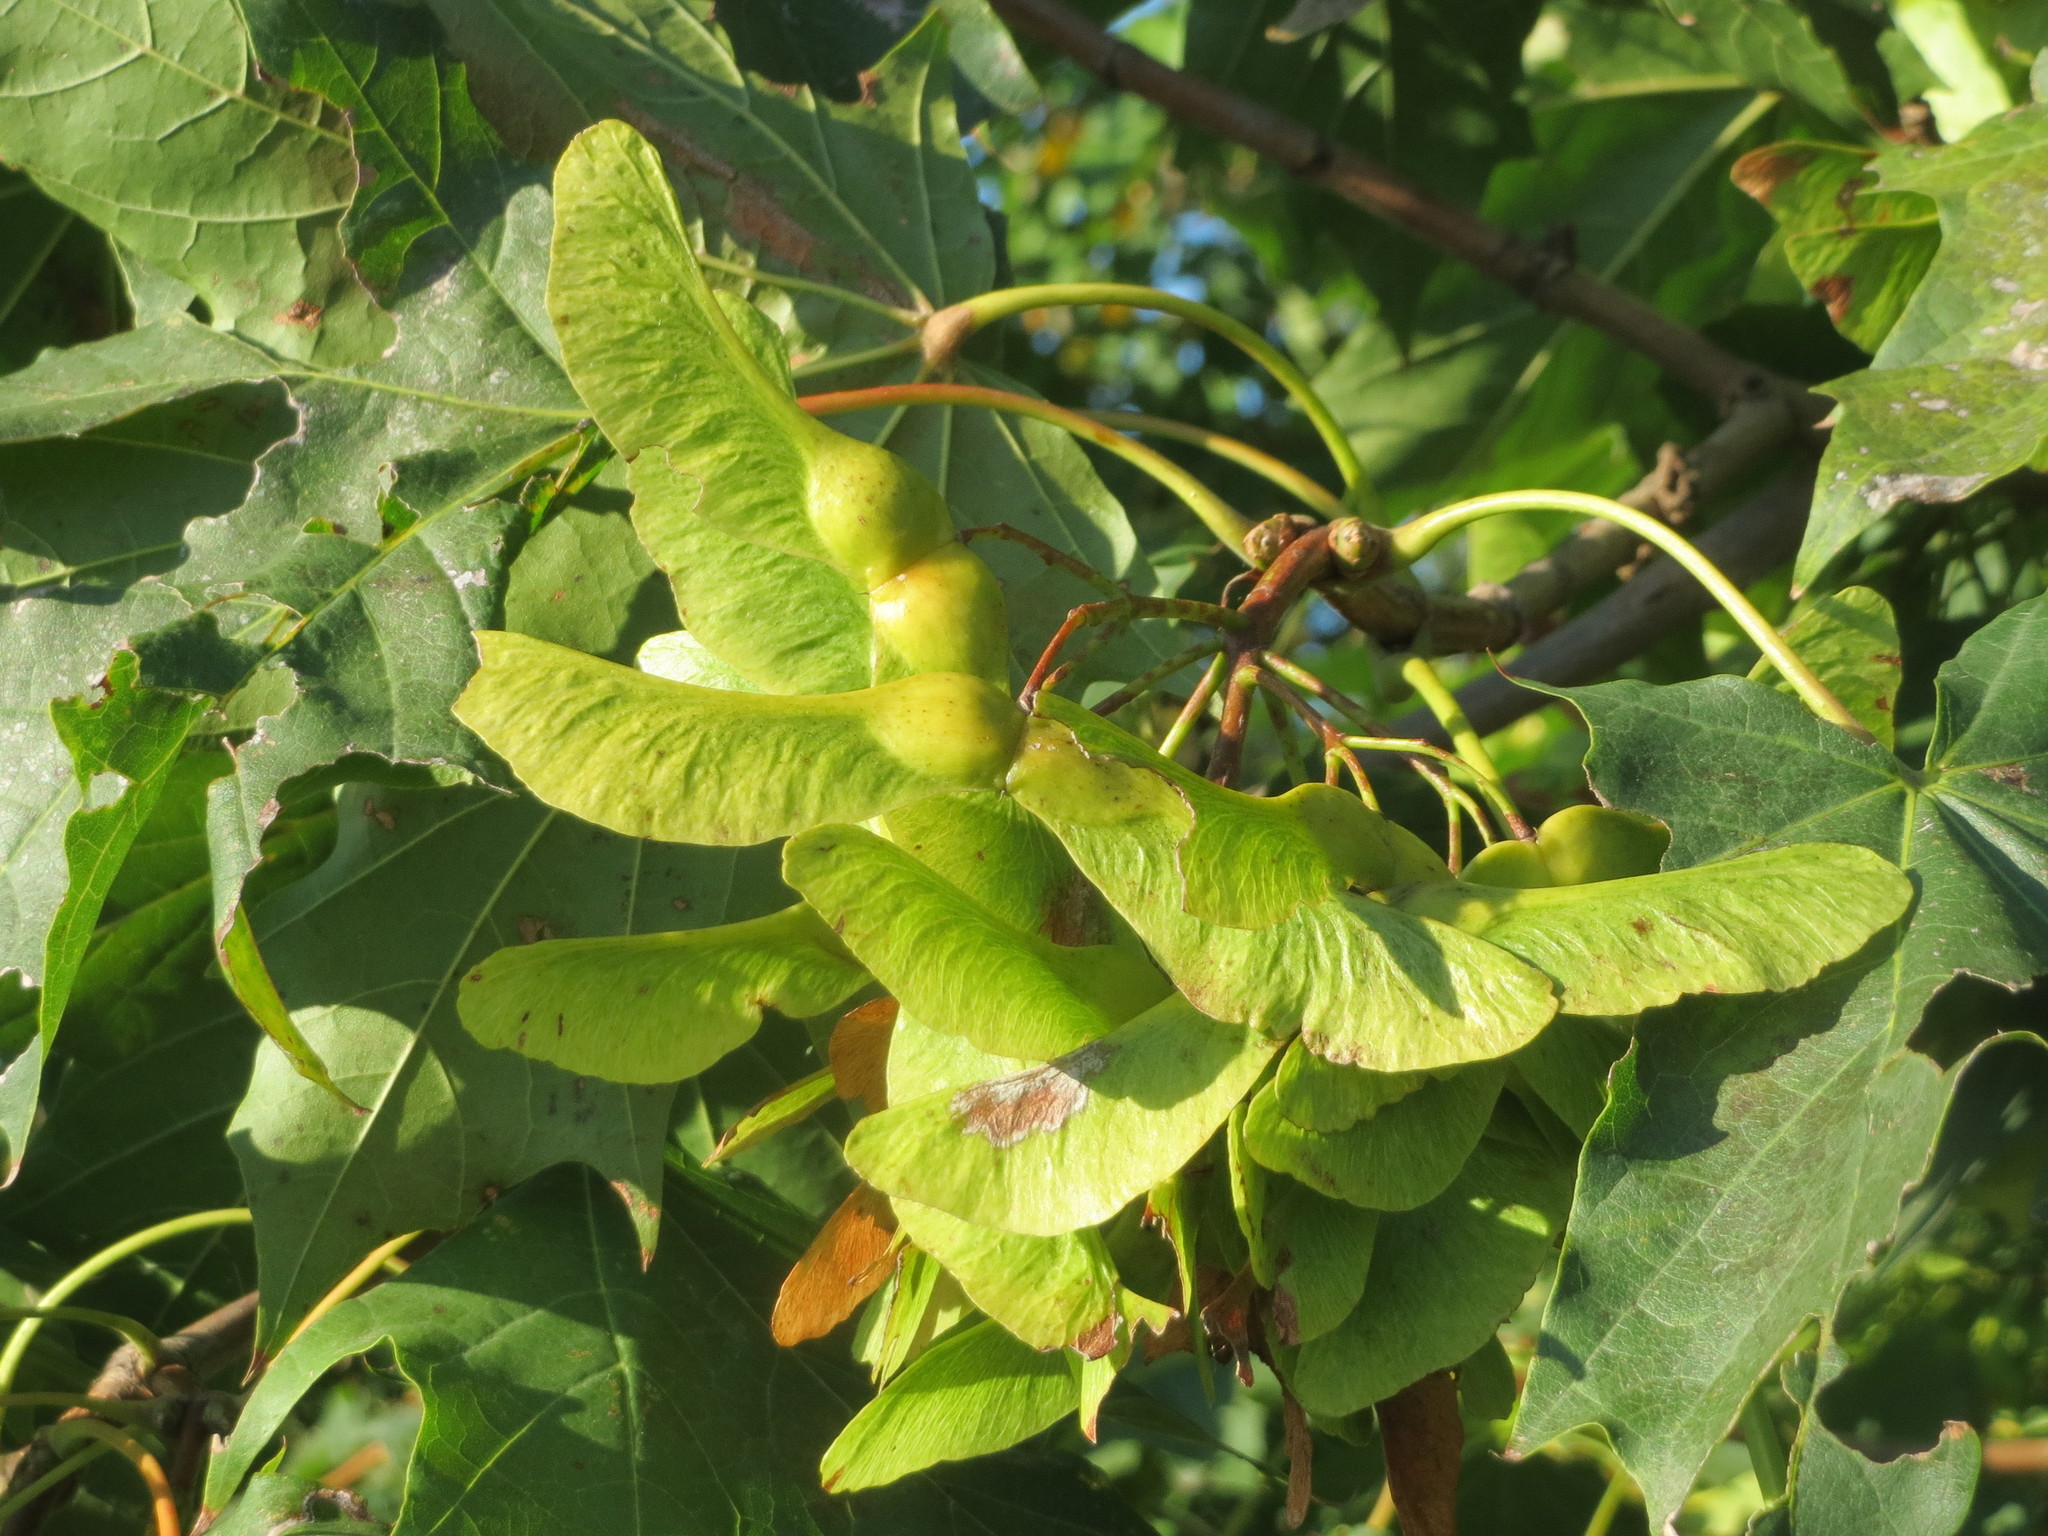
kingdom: Plantae
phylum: Tracheophyta
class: Magnoliopsida
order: Sapindales
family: Sapindaceae
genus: Acer
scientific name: Acer platanoides
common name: Norway maple
